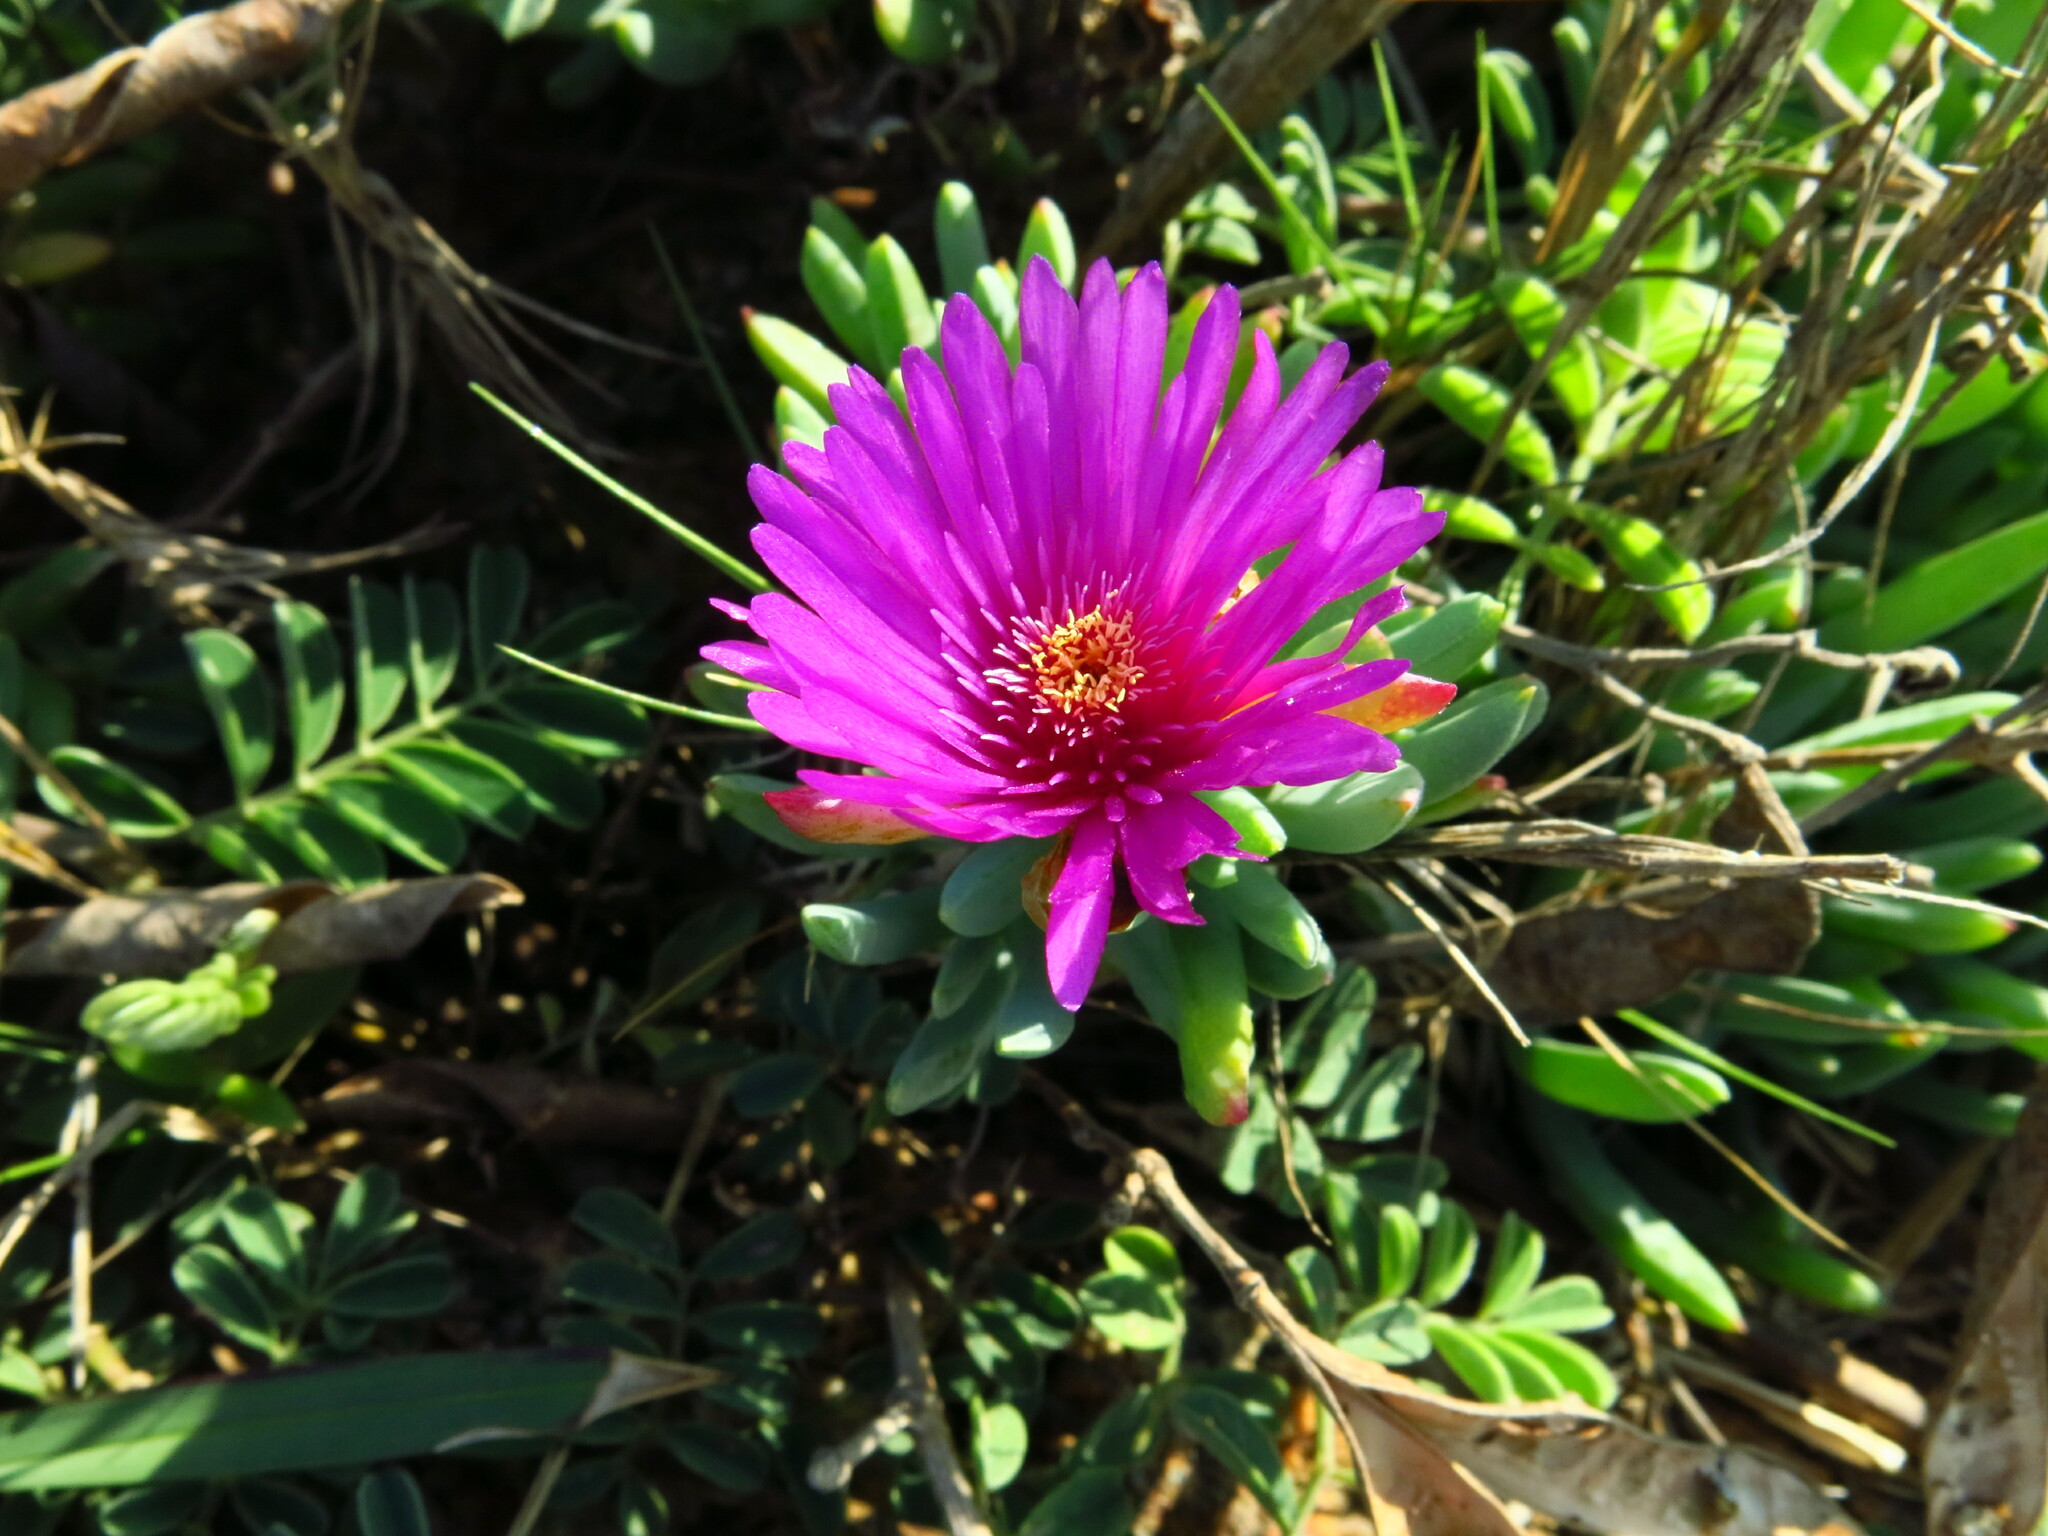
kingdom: Plantae
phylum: Tracheophyta
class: Magnoliopsida
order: Caryophyllales
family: Aizoaceae
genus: Lampranthus
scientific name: Lampranthus fugitans
